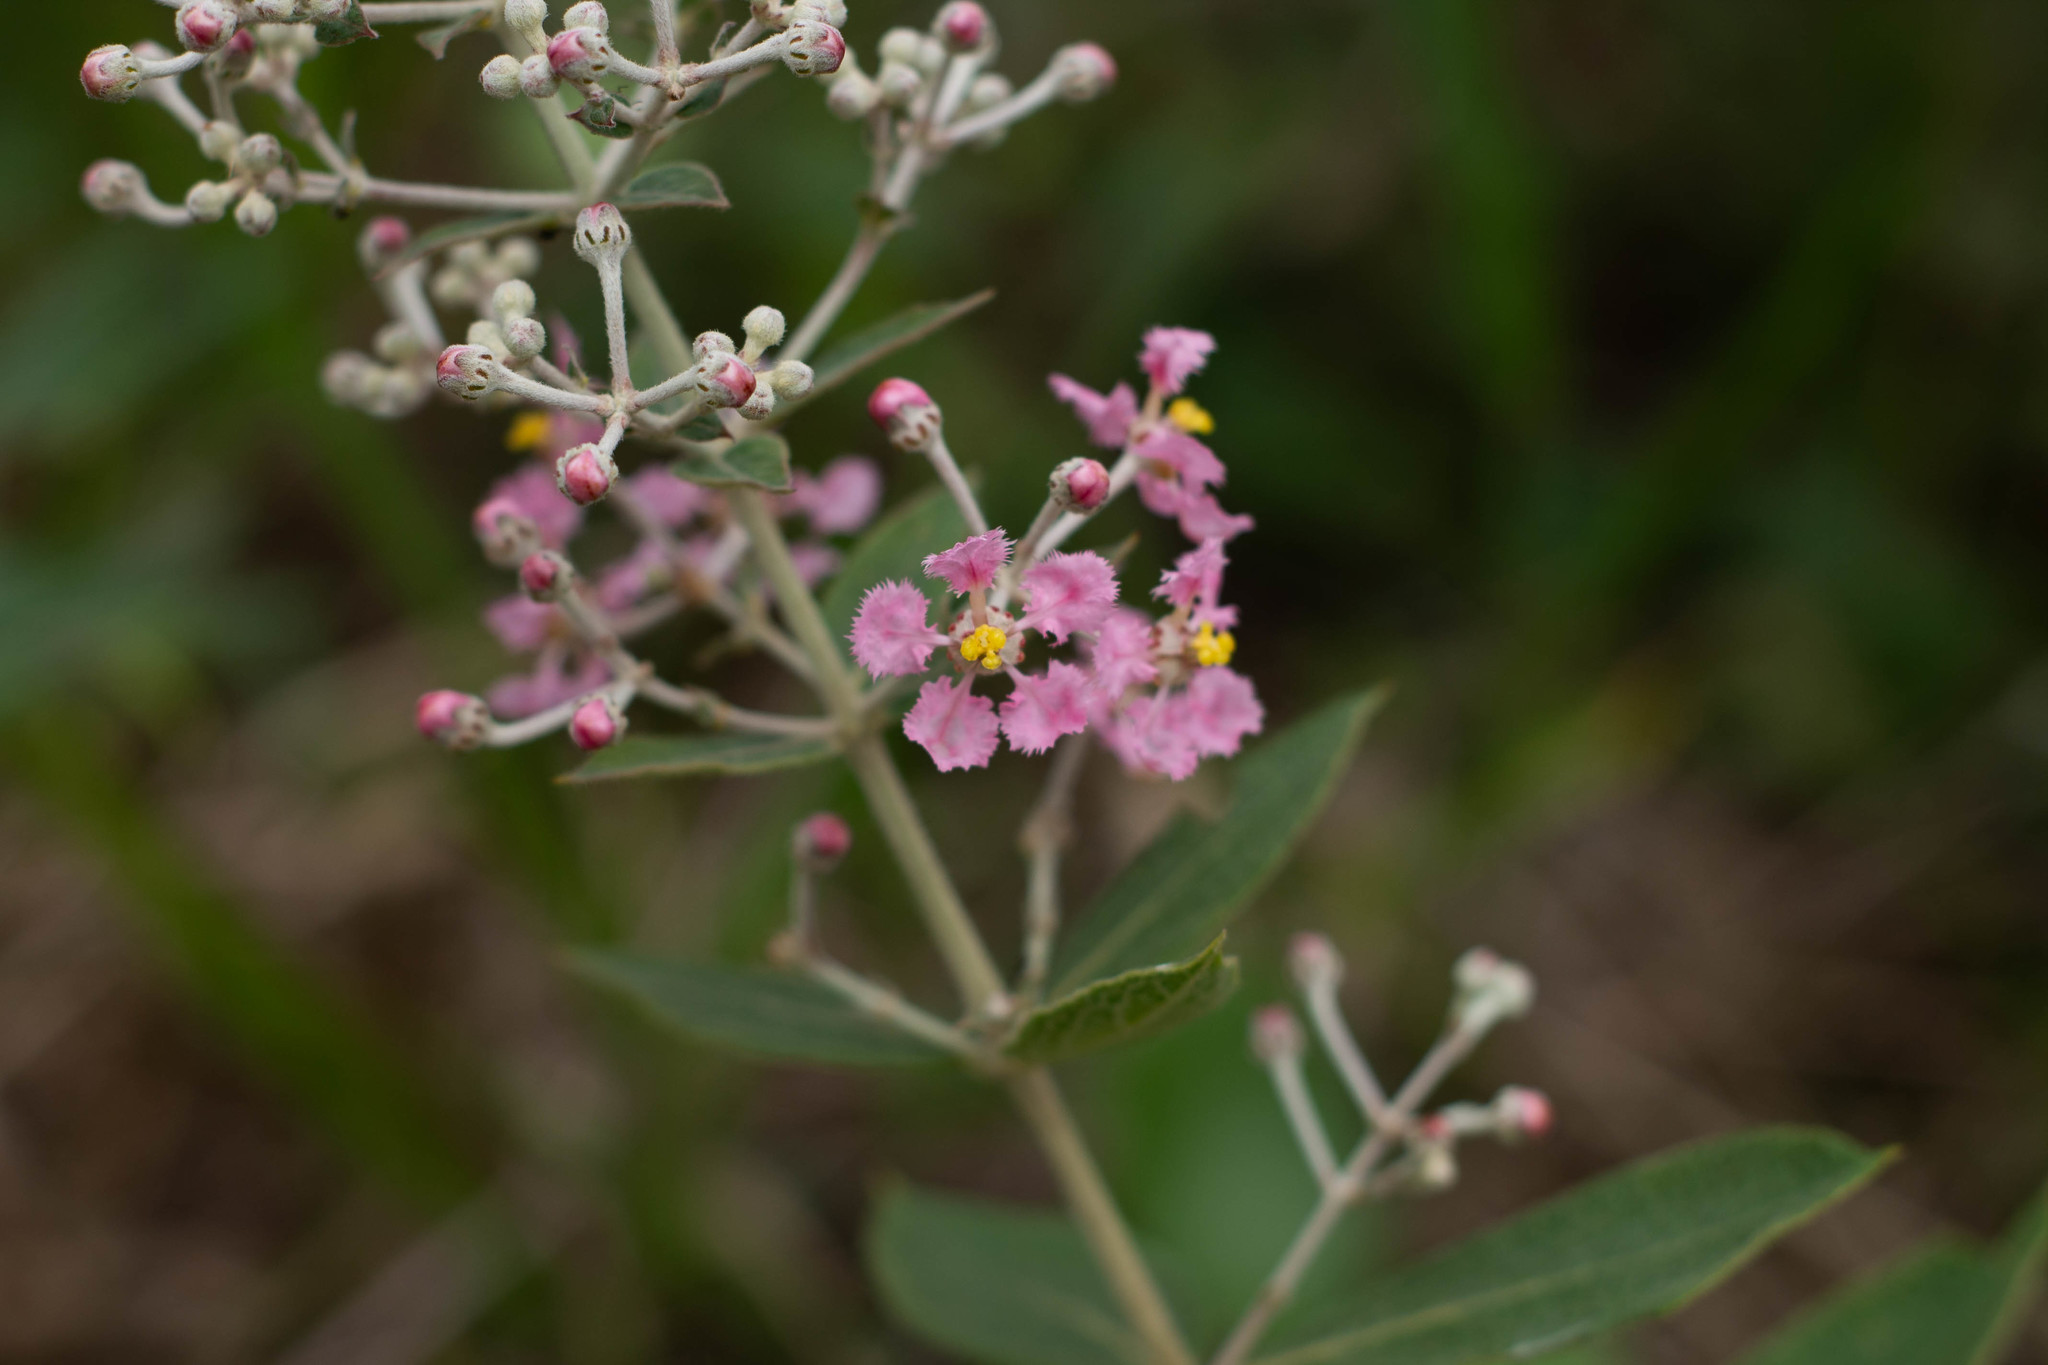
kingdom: Plantae
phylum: Tracheophyta
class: Magnoliopsida
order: Malpighiales
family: Malpighiaceae
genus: Banisteriopsis
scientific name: Banisteriopsis campestris
